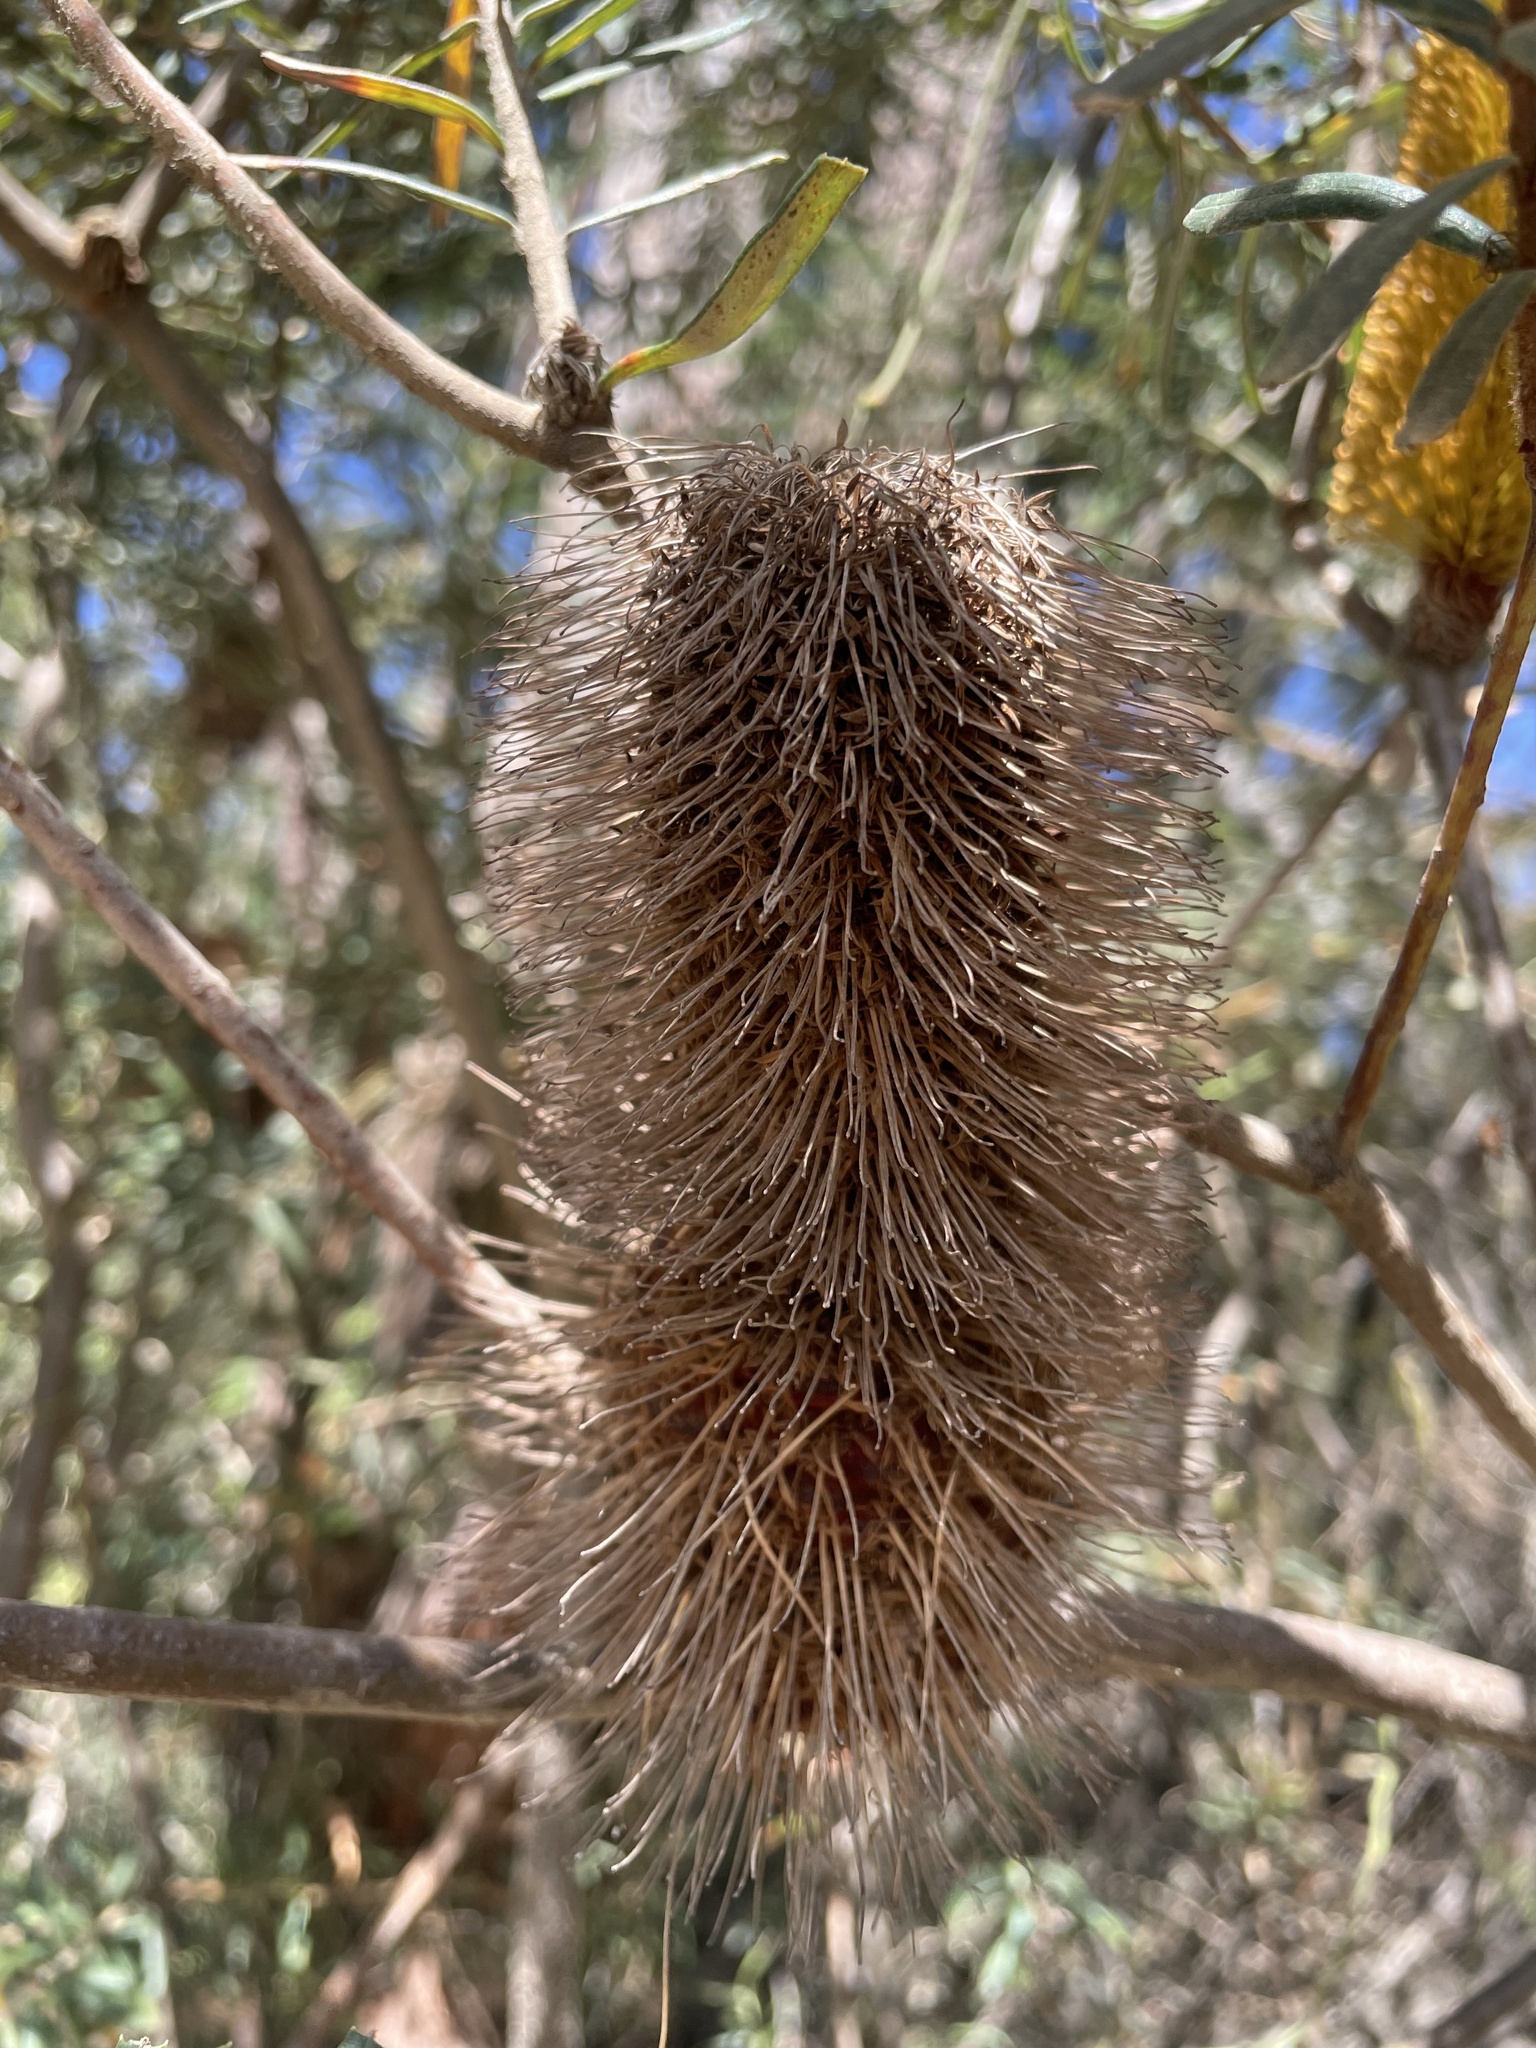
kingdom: Plantae
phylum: Tracheophyta
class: Magnoliopsida
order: Proteales
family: Proteaceae
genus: Banksia
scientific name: Banksia marginata
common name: Silver banksia
